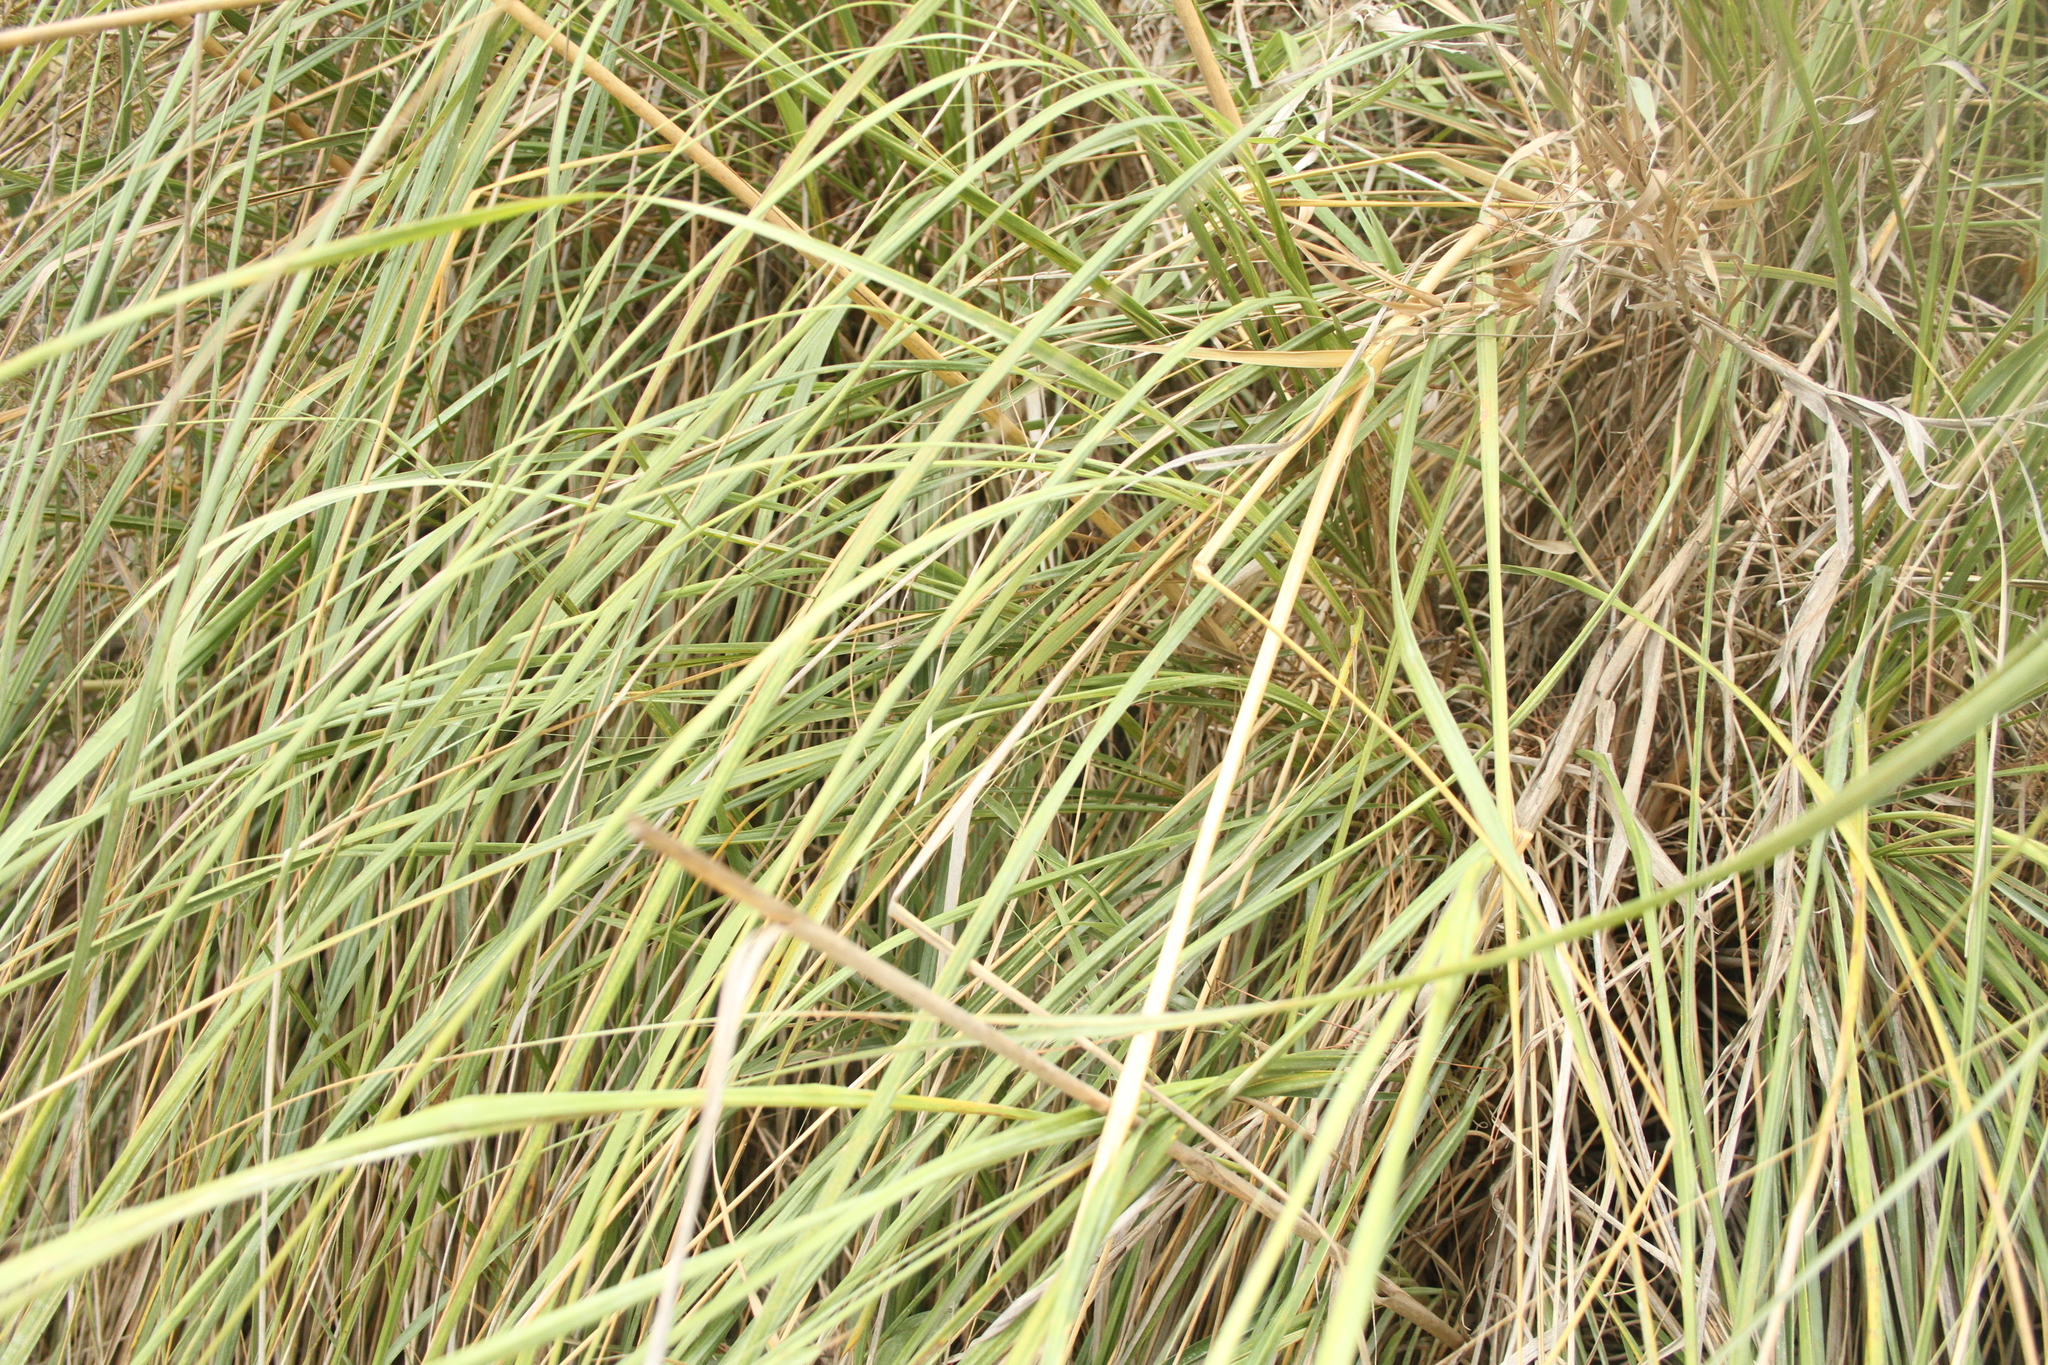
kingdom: Plantae
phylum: Tracheophyta
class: Liliopsida
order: Poales
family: Poaceae
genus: Ampelodesmos
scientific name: Ampelodesmos mauritanicus
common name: Mauritanian grass
